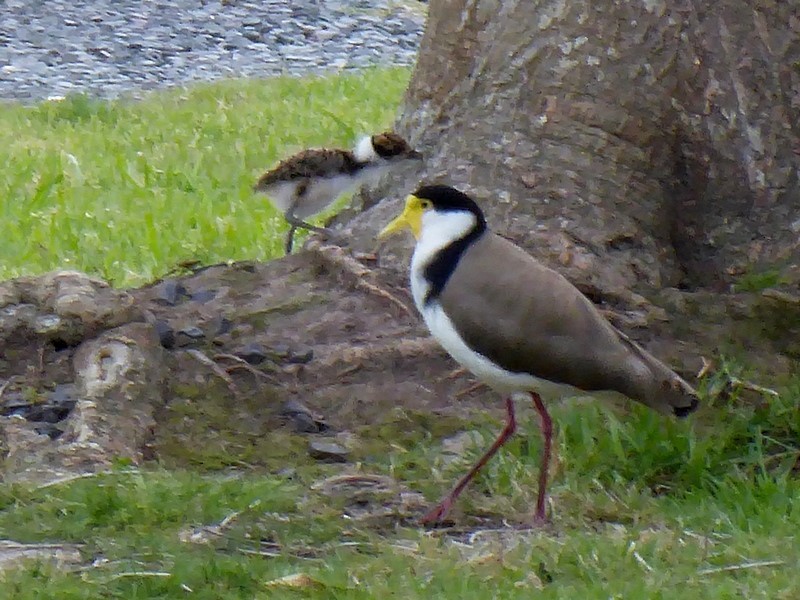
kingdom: Animalia
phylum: Chordata
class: Aves
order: Charadriiformes
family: Charadriidae
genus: Vanellus
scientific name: Vanellus miles
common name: Masked lapwing
